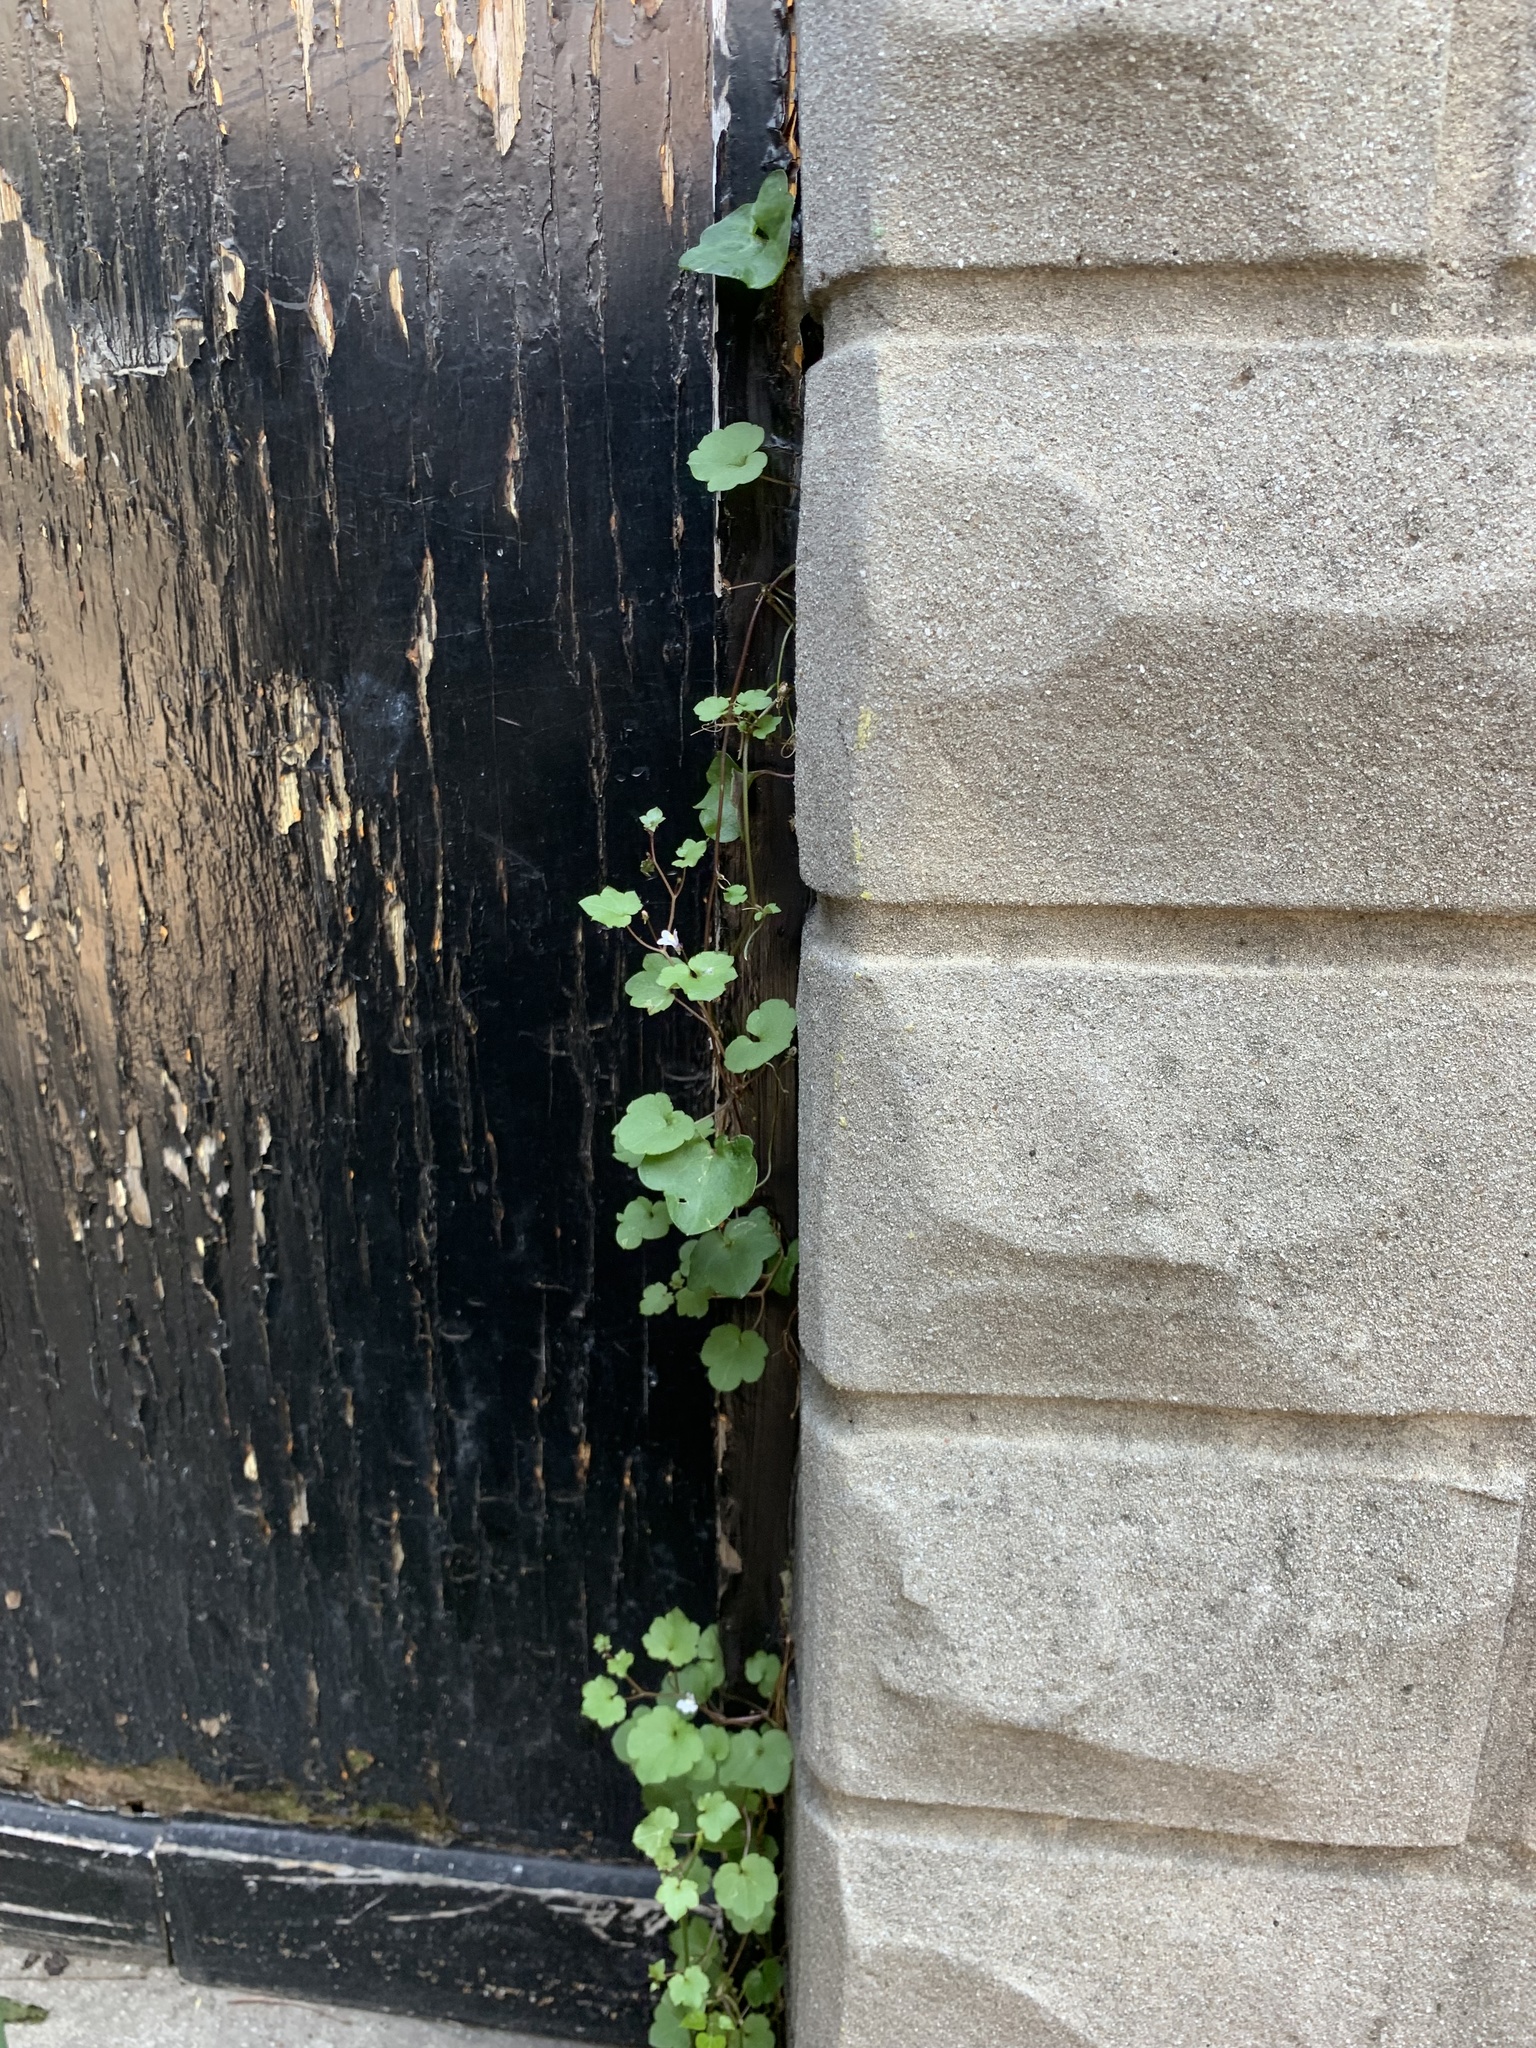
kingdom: Plantae
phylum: Tracheophyta
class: Magnoliopsida
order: Lamiales
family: Plantaginaceae
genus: Cymbalaria
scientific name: Cymbalaria muralis
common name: Ivy-leaved toadflax
